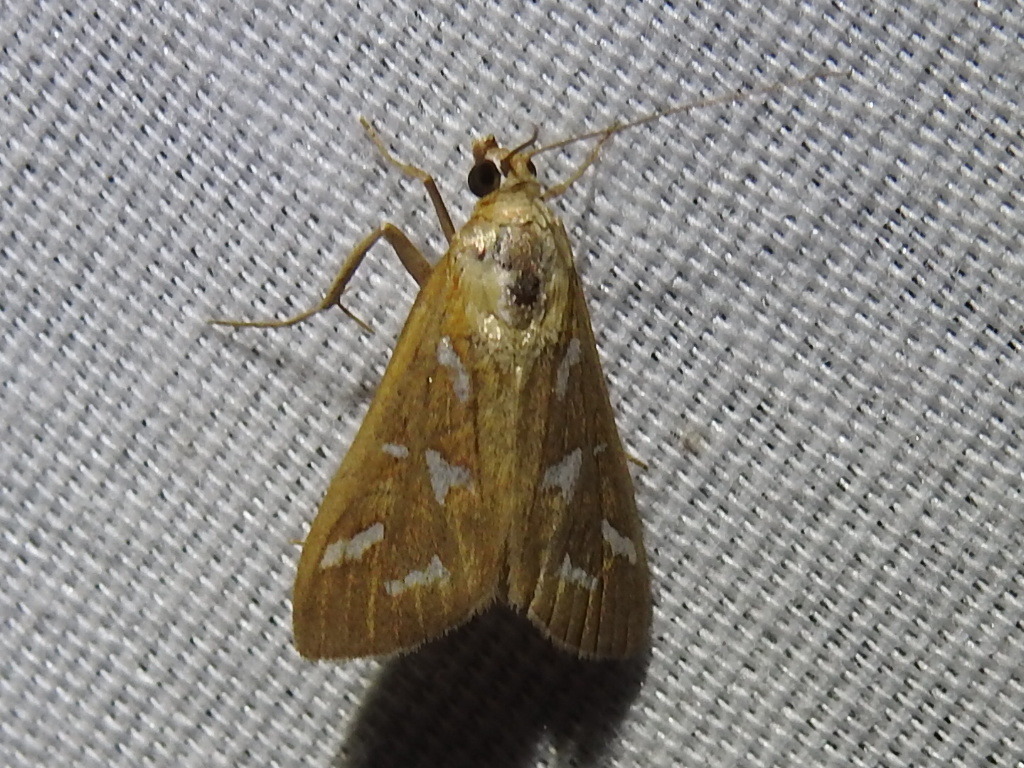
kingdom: Animalia
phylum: Arthropoda
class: Insecta
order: Lepidoptera
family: Crambidae
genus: Diastictis
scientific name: Diastictis fracturalis
